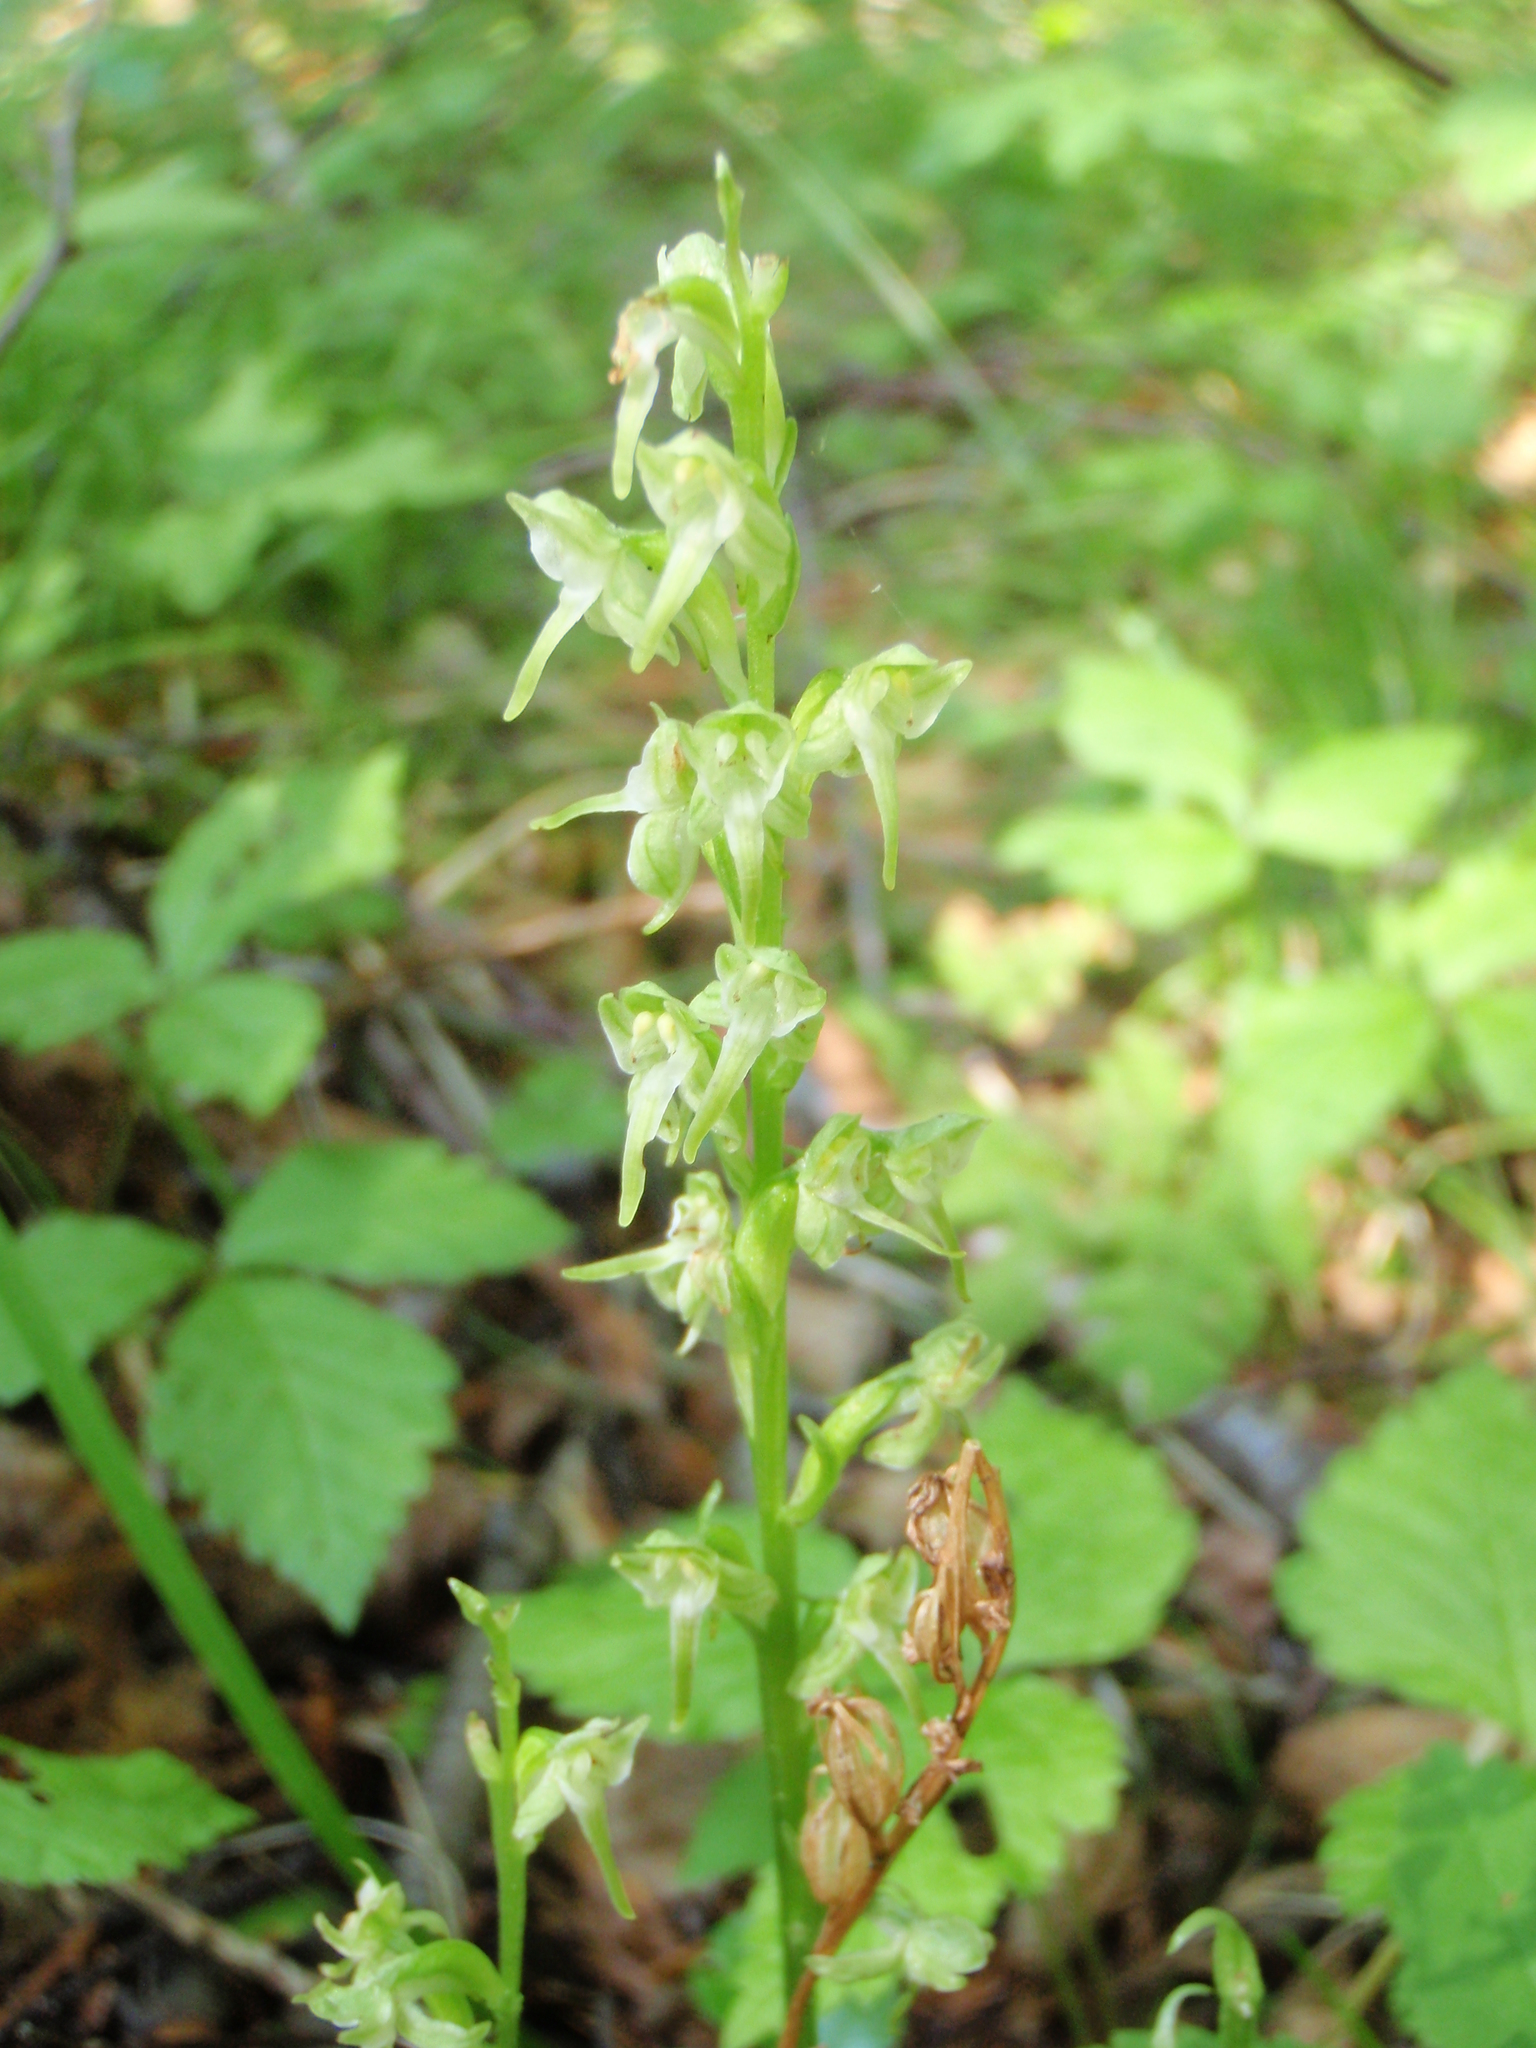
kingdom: Plantae
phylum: Tracheophyta
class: Liliopsida
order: Asparagales
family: Orchidaceae
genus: Platanthera
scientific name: Platanthera obtusata
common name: Blunt bog orchid
